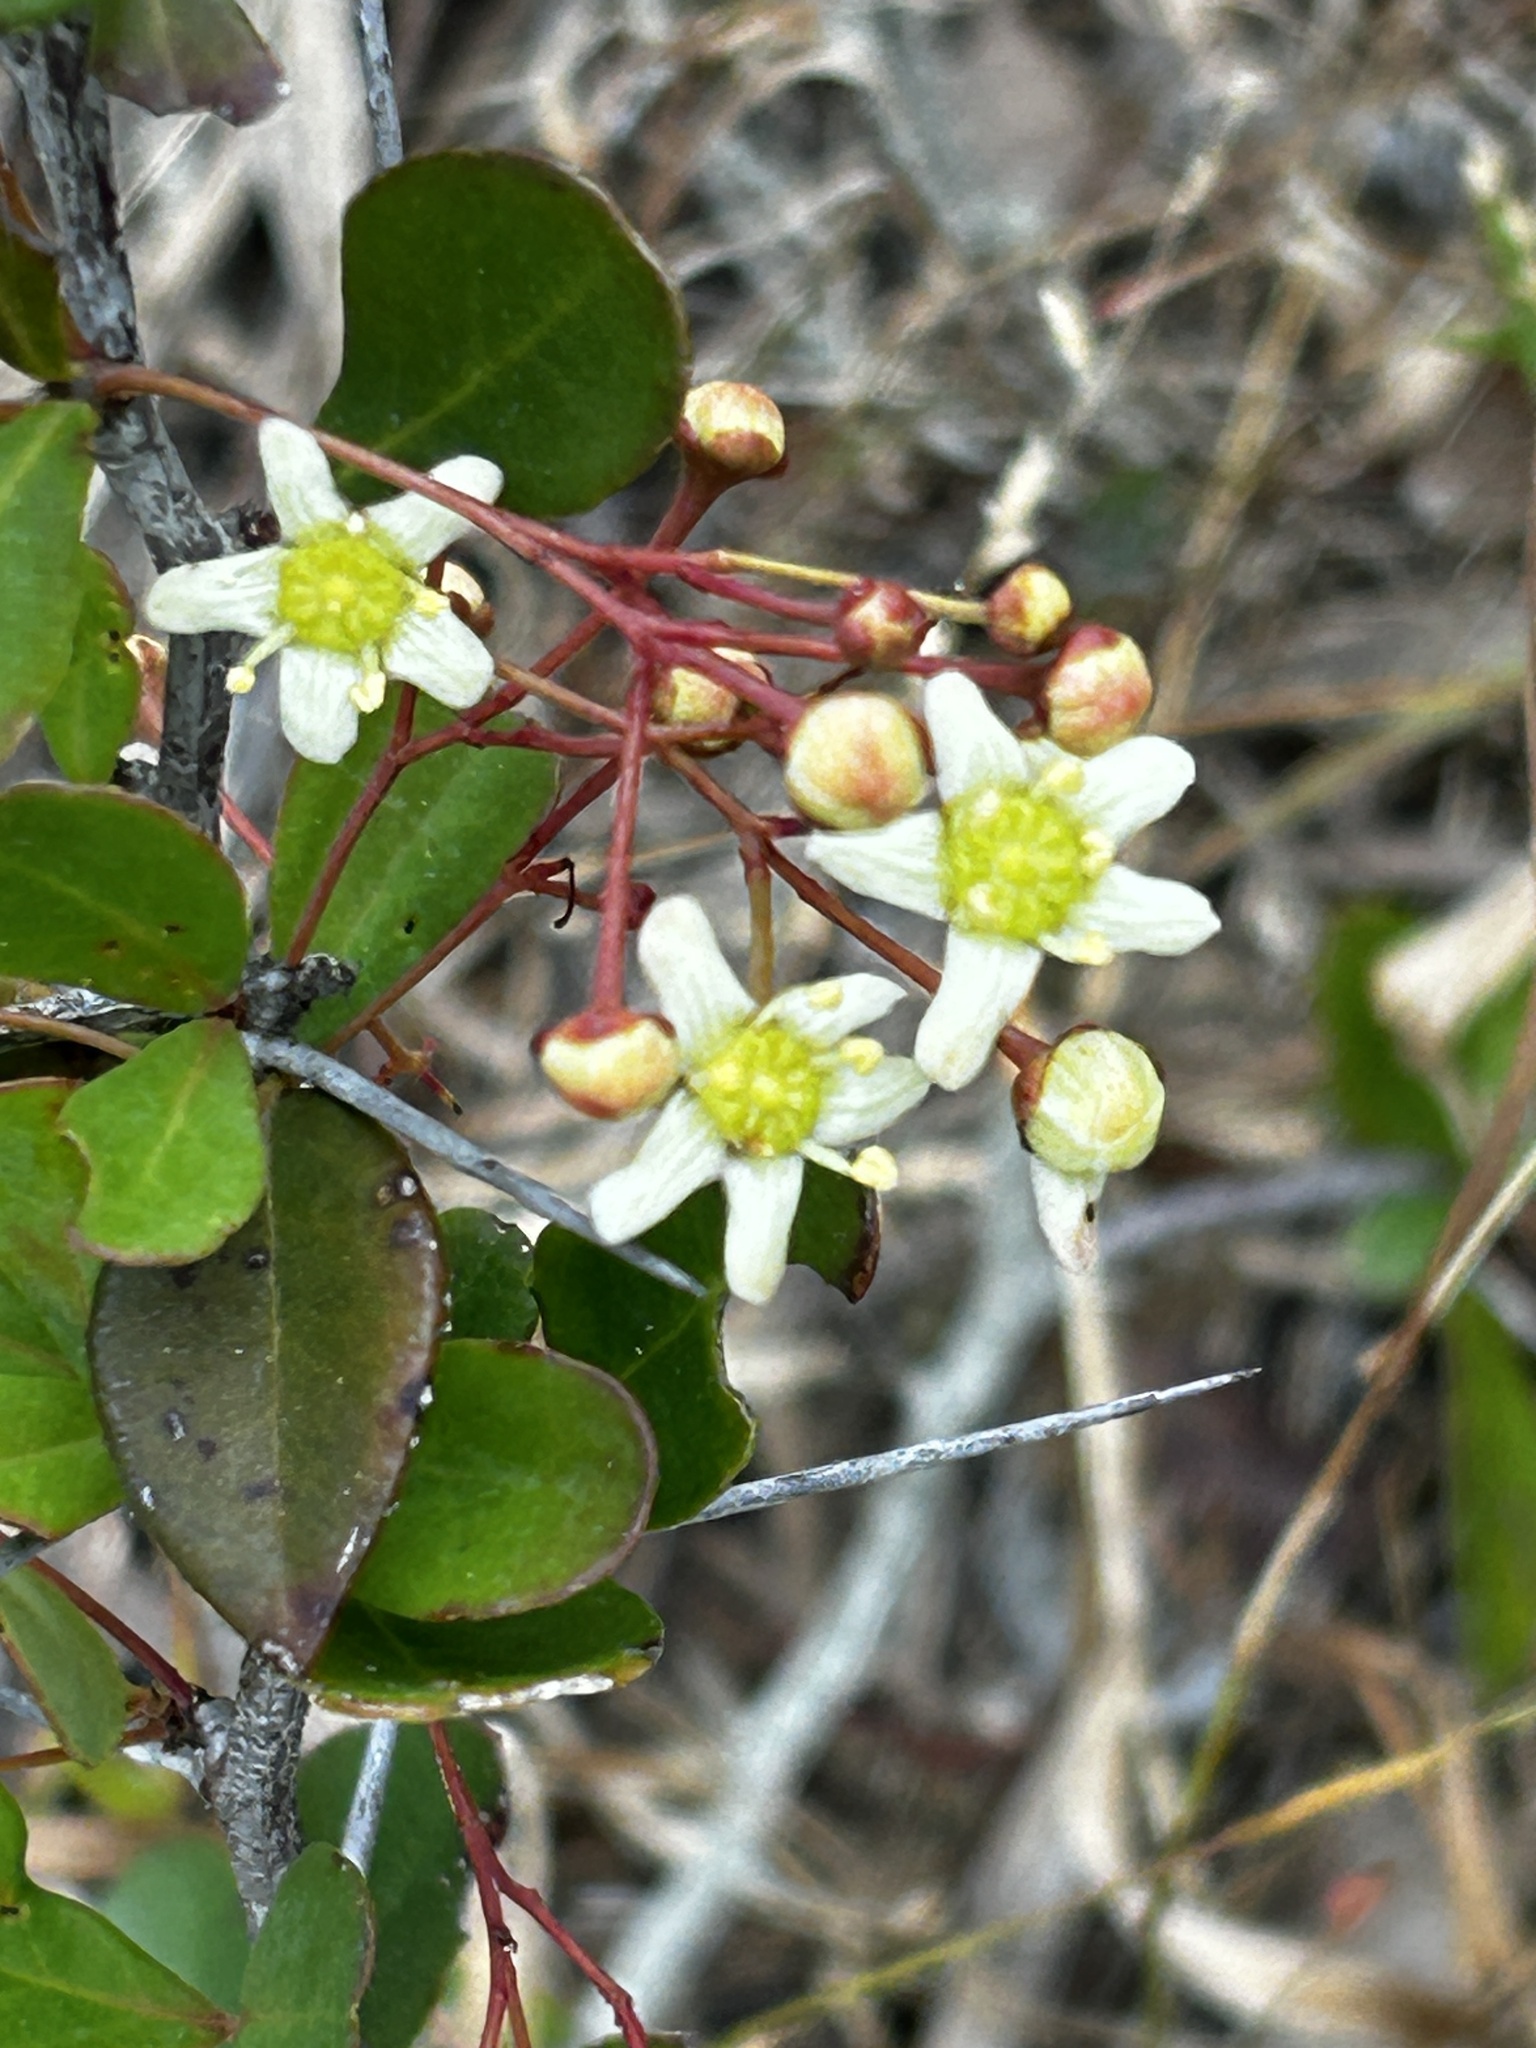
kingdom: Plantae
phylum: Tracheophyta
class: Magnoliopsida
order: Celastrales
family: Celastraceae
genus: Putterlickia
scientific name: Putterlickia pyracantha
